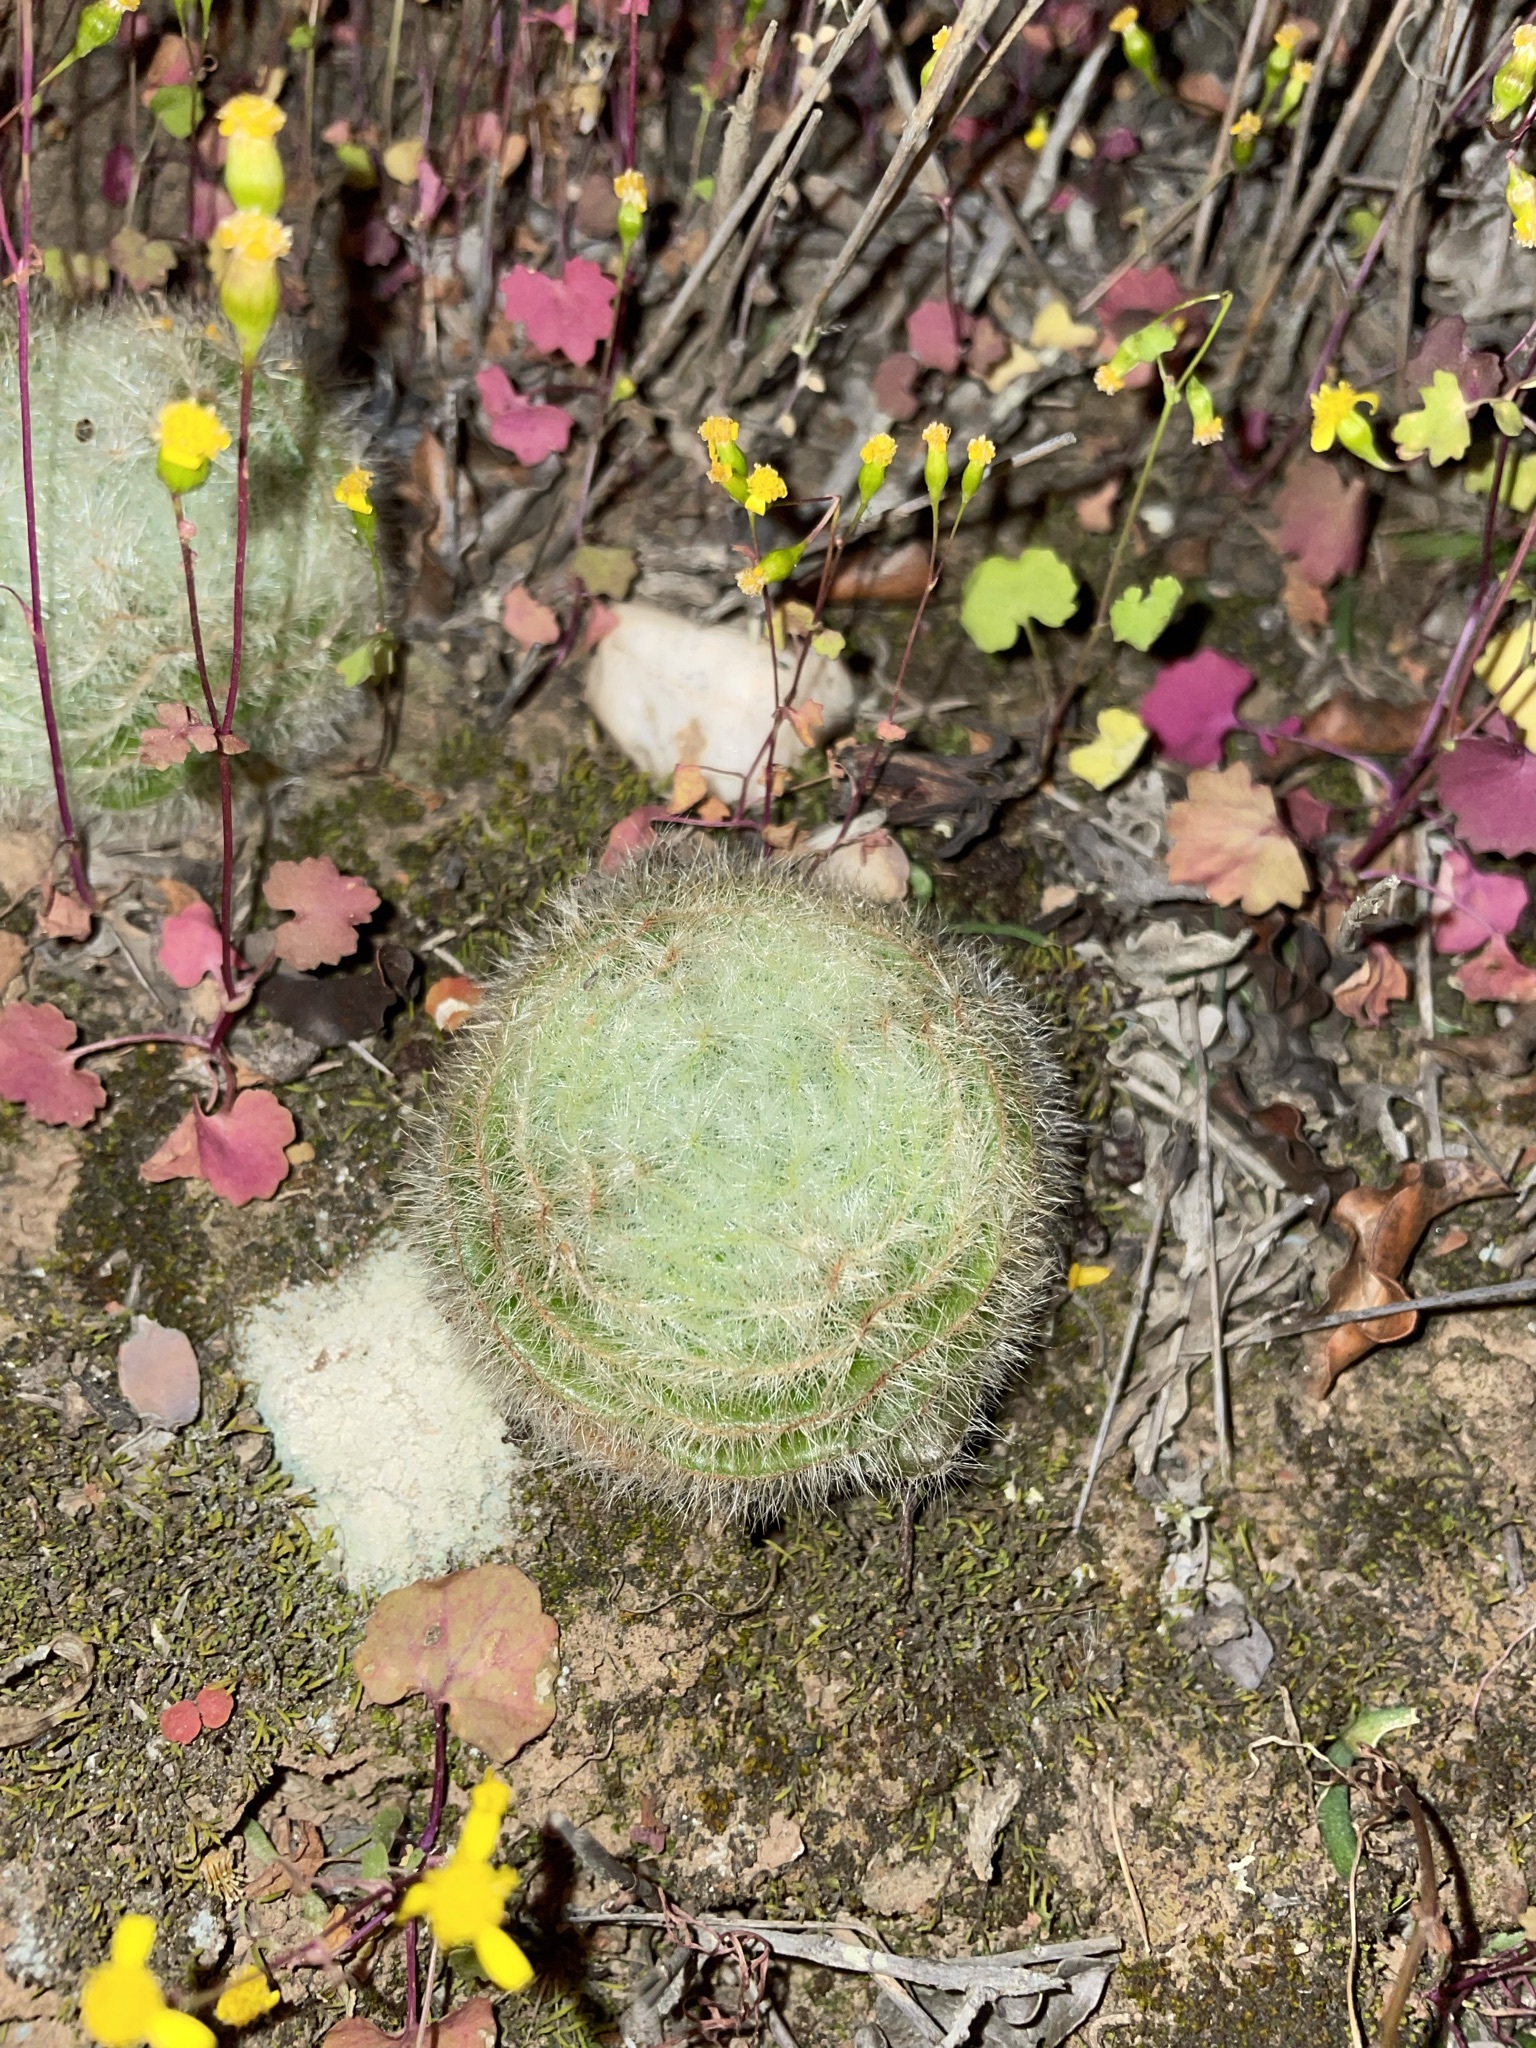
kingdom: Plantae
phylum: Tracheophyta
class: Magnoliopsida
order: Saxifragales
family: Crassulaceae
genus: Crassula
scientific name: Crassula barbata
